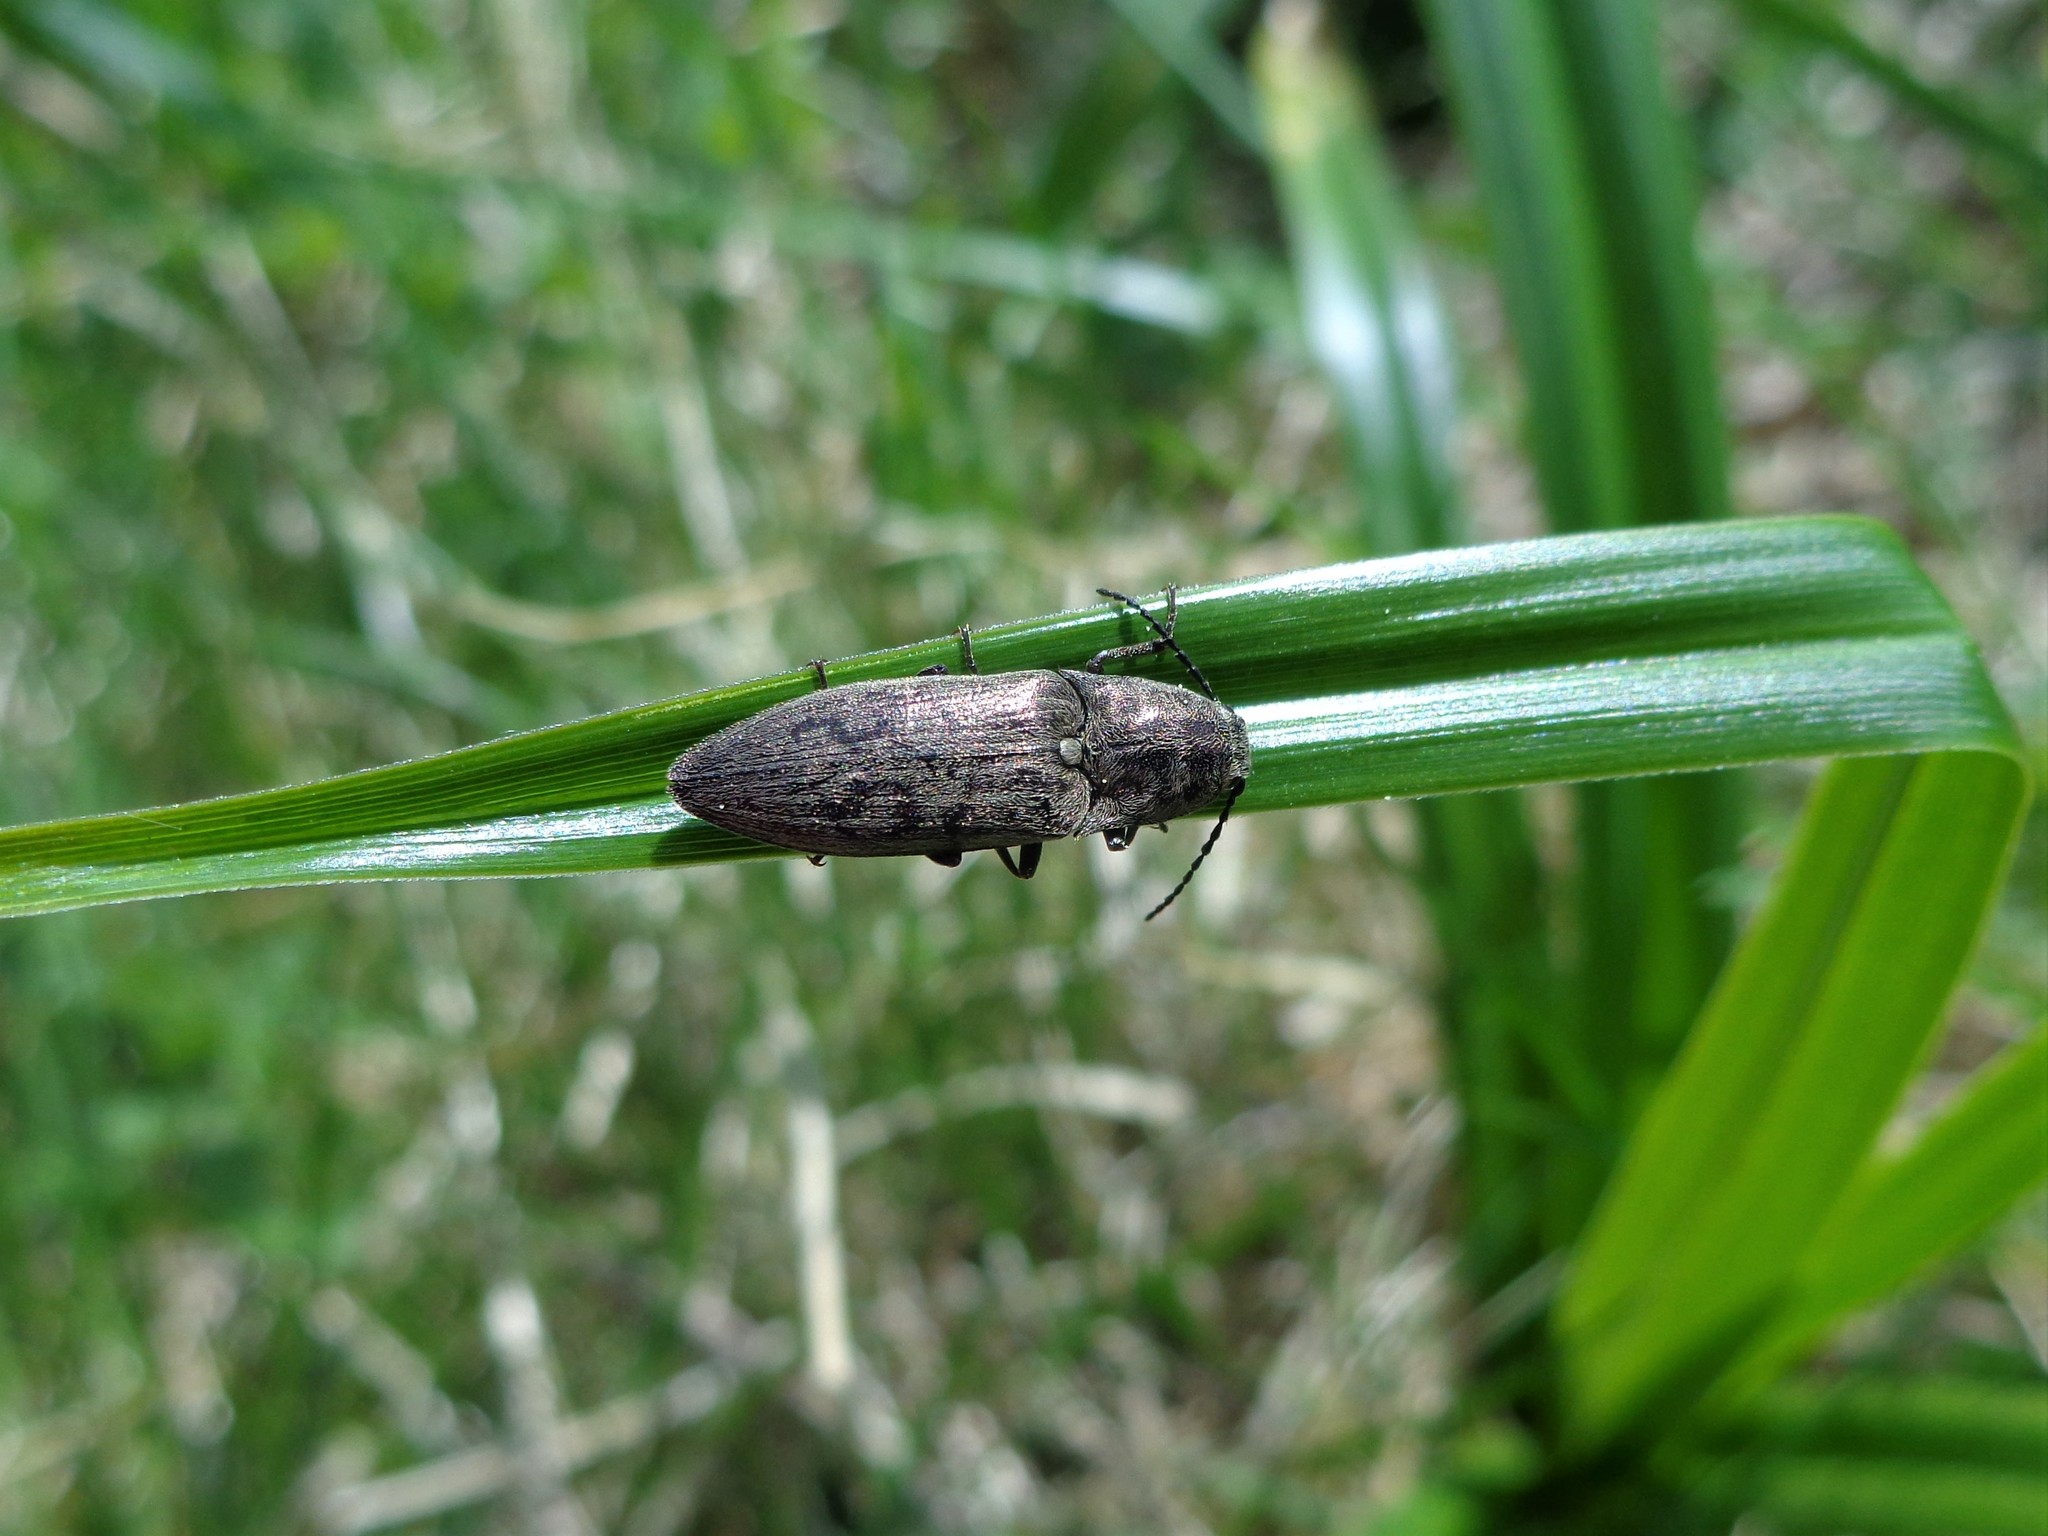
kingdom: Animalia
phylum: Arthropoda
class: Insecta
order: Coleoptera
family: Elateridae
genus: Actenicerus
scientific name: Actenicerus sjaelandicus
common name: Marsh click beetle
